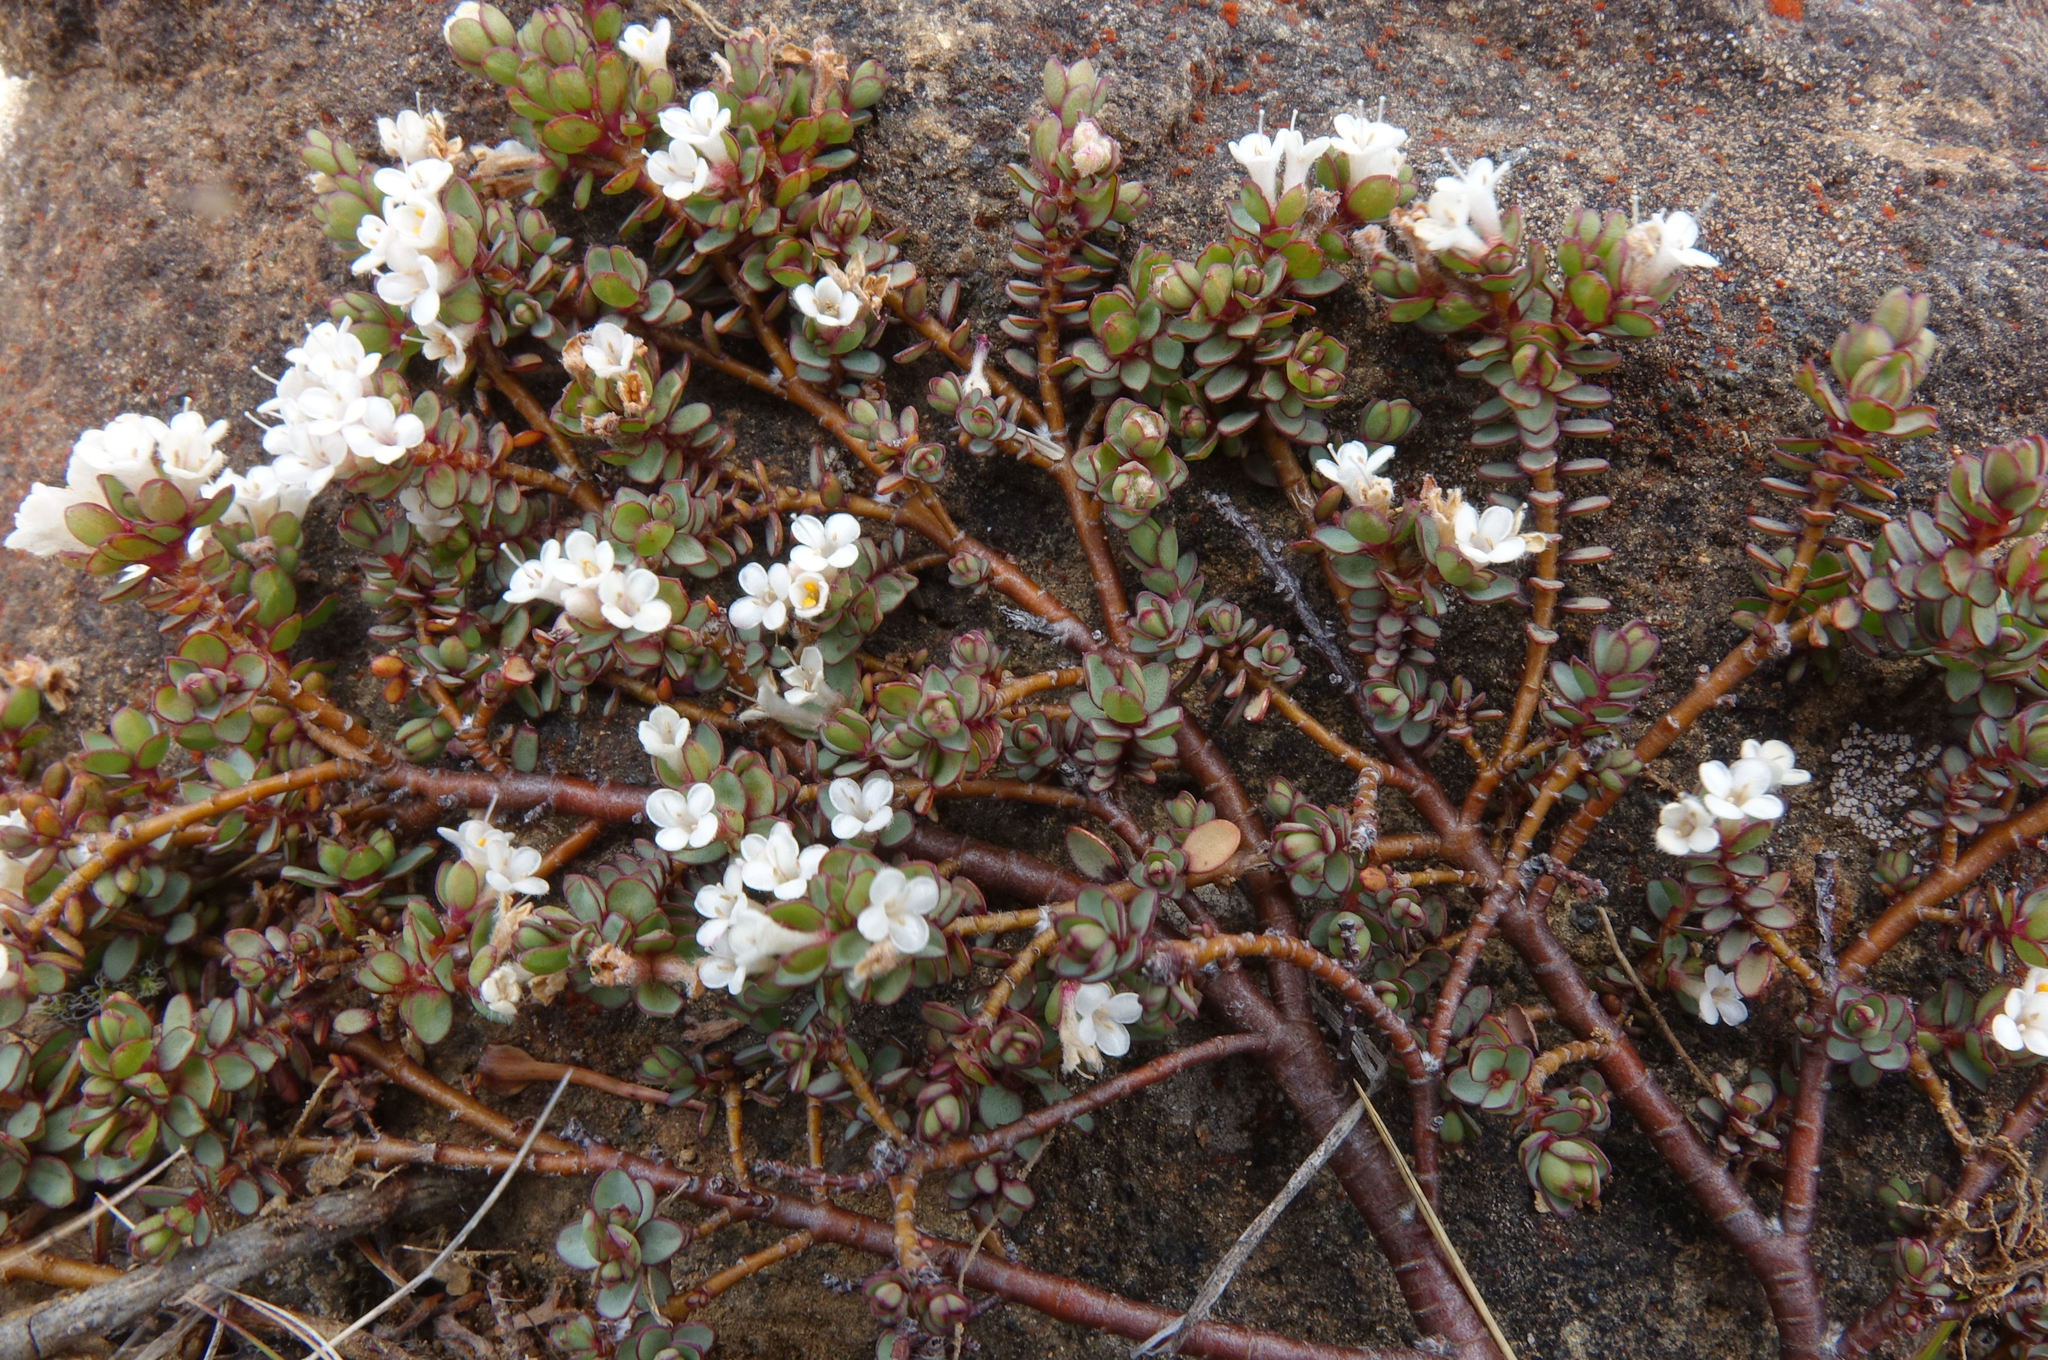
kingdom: Plantae
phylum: Tracheophyta
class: Magnoliopsida
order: Malvales
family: Thymelaeaceae
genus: Pimelea
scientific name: Pimelea prostrata
